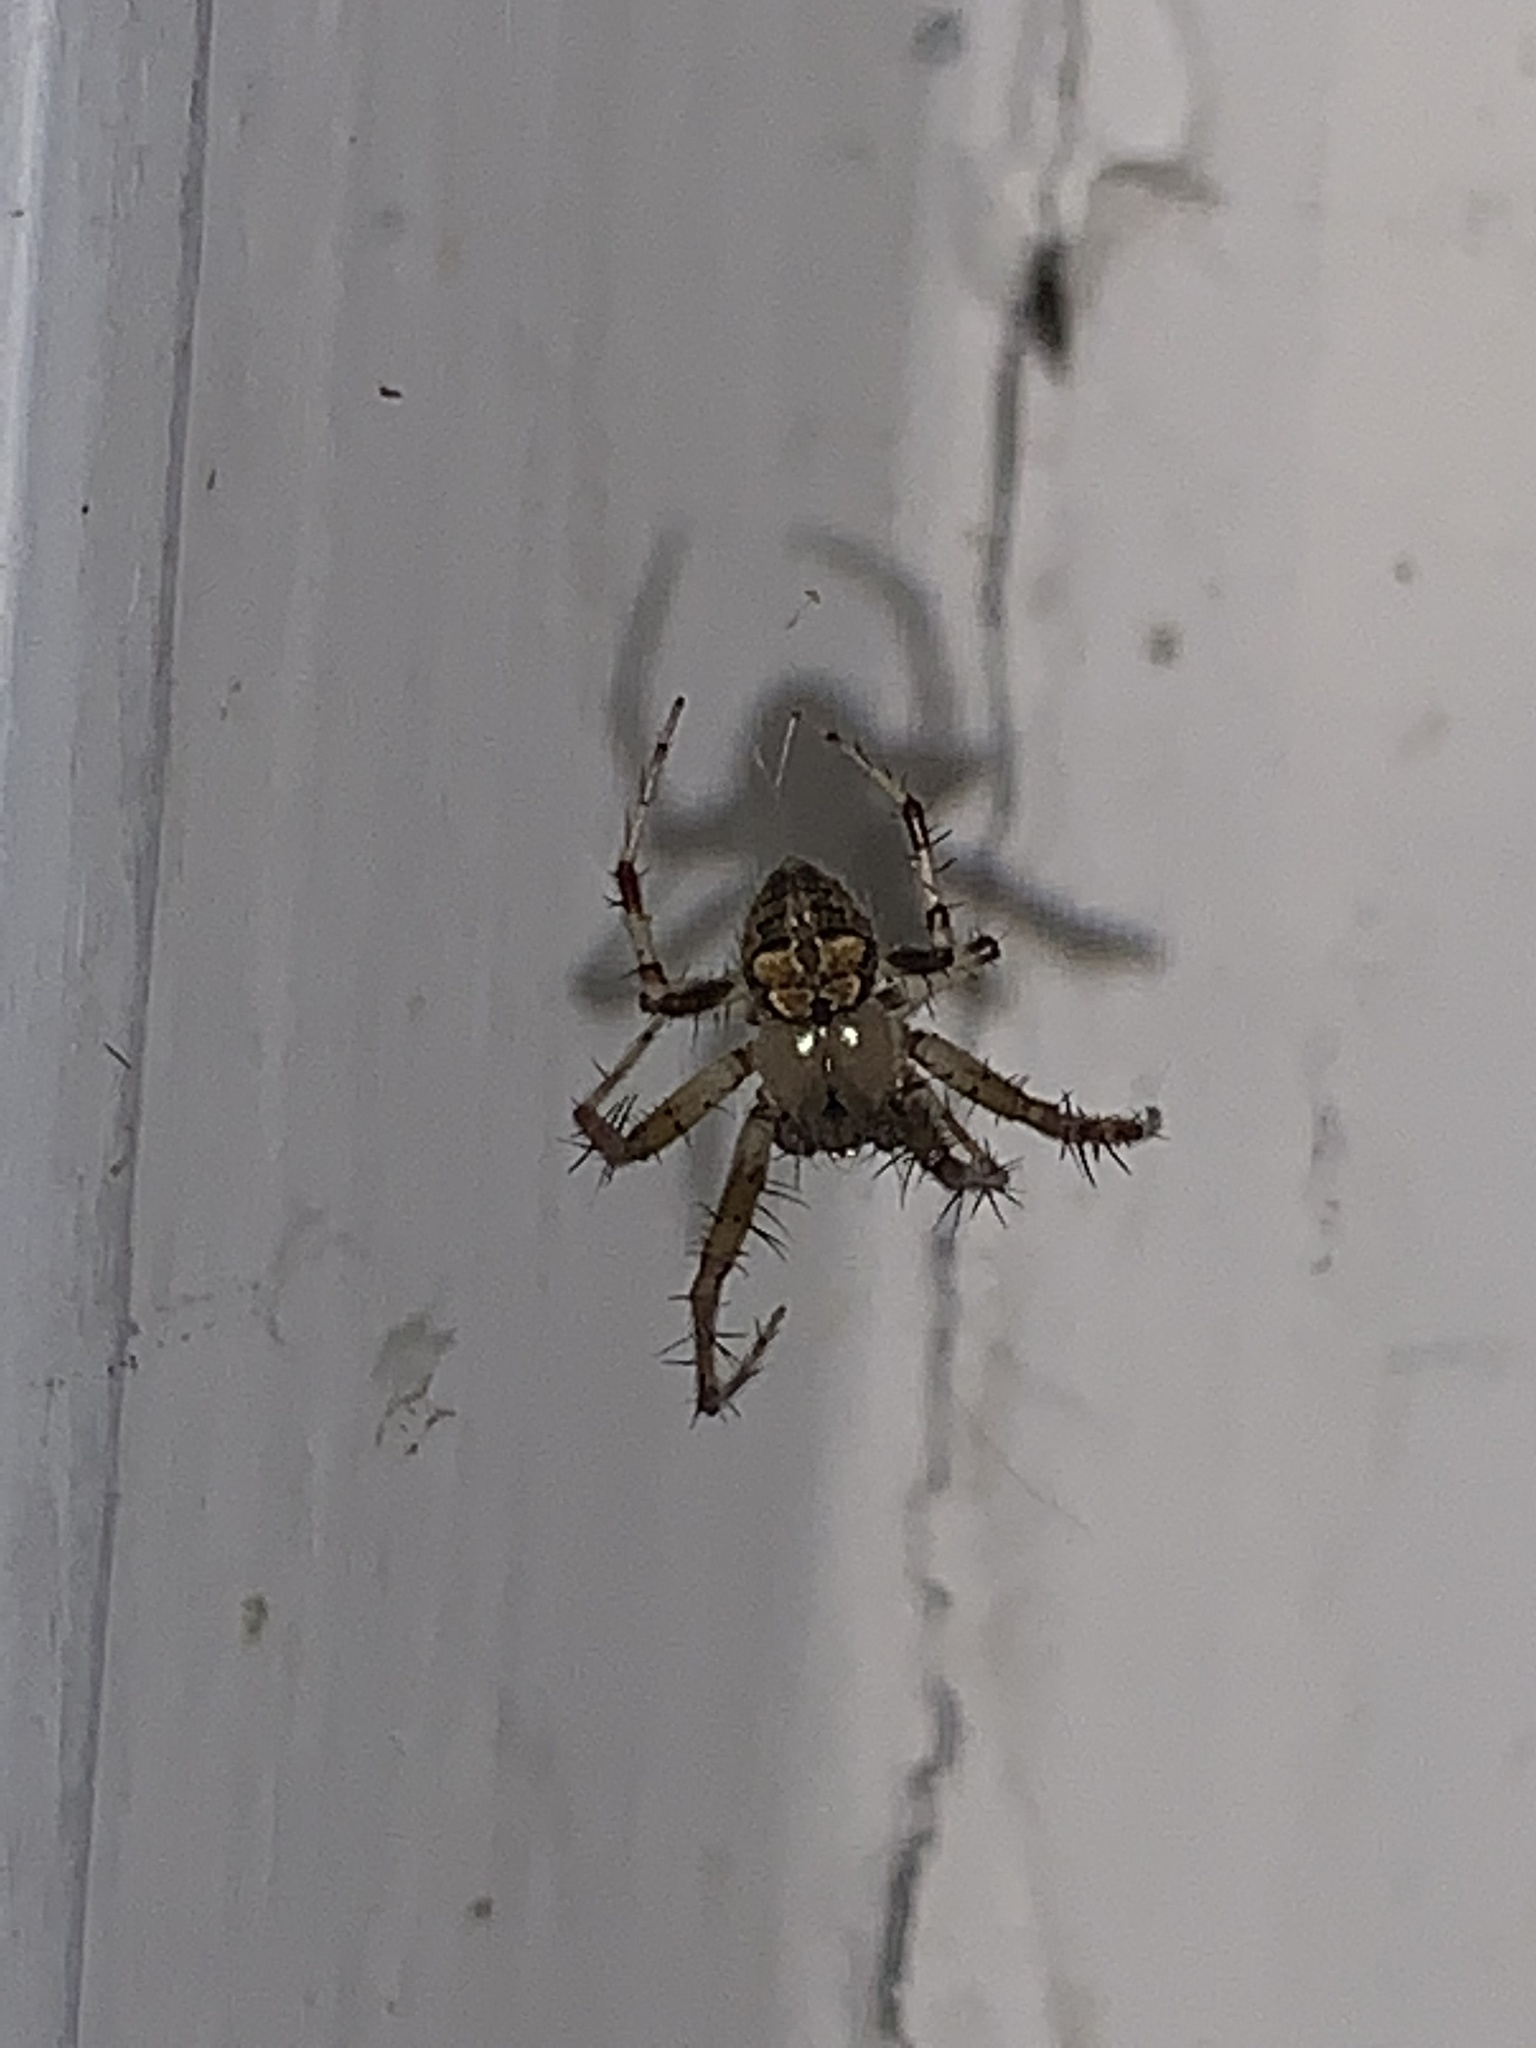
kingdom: Animalia
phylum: Arthropoda
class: Arachnida
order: Araneae
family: Araneidae
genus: Araneus
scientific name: Araneus pegnia
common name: Orb weavers
